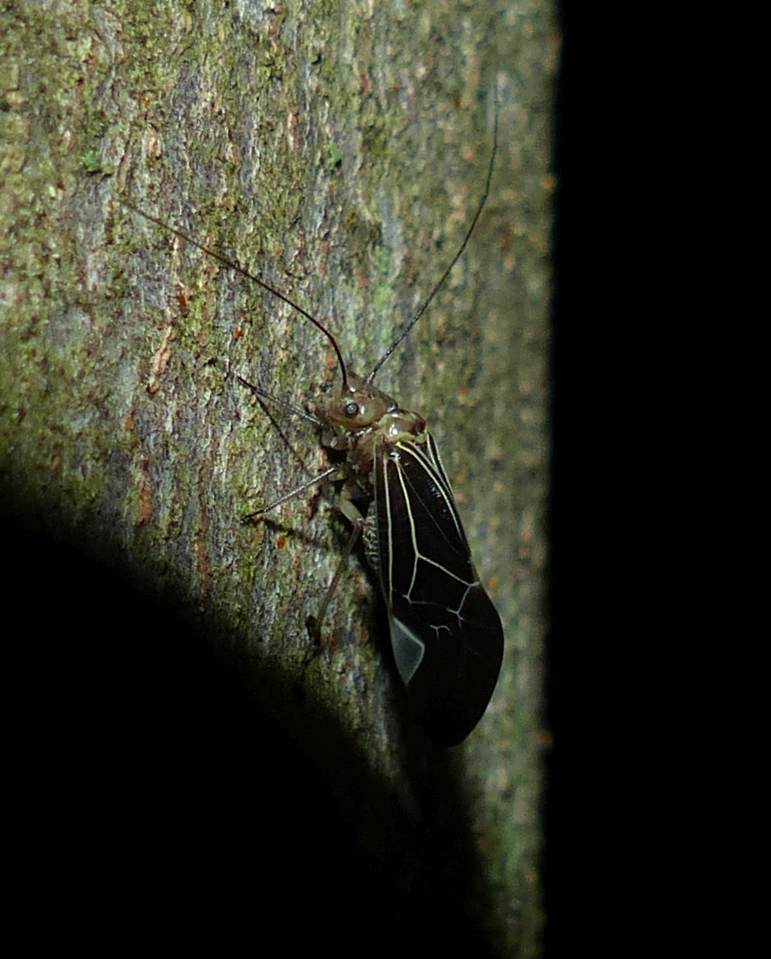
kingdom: Animalia
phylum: Arthropoda
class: Insecta
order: Psocodea
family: Psocidae
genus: Cerastipsocus
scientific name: Cerastipsocus venosus
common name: Tree cattle
